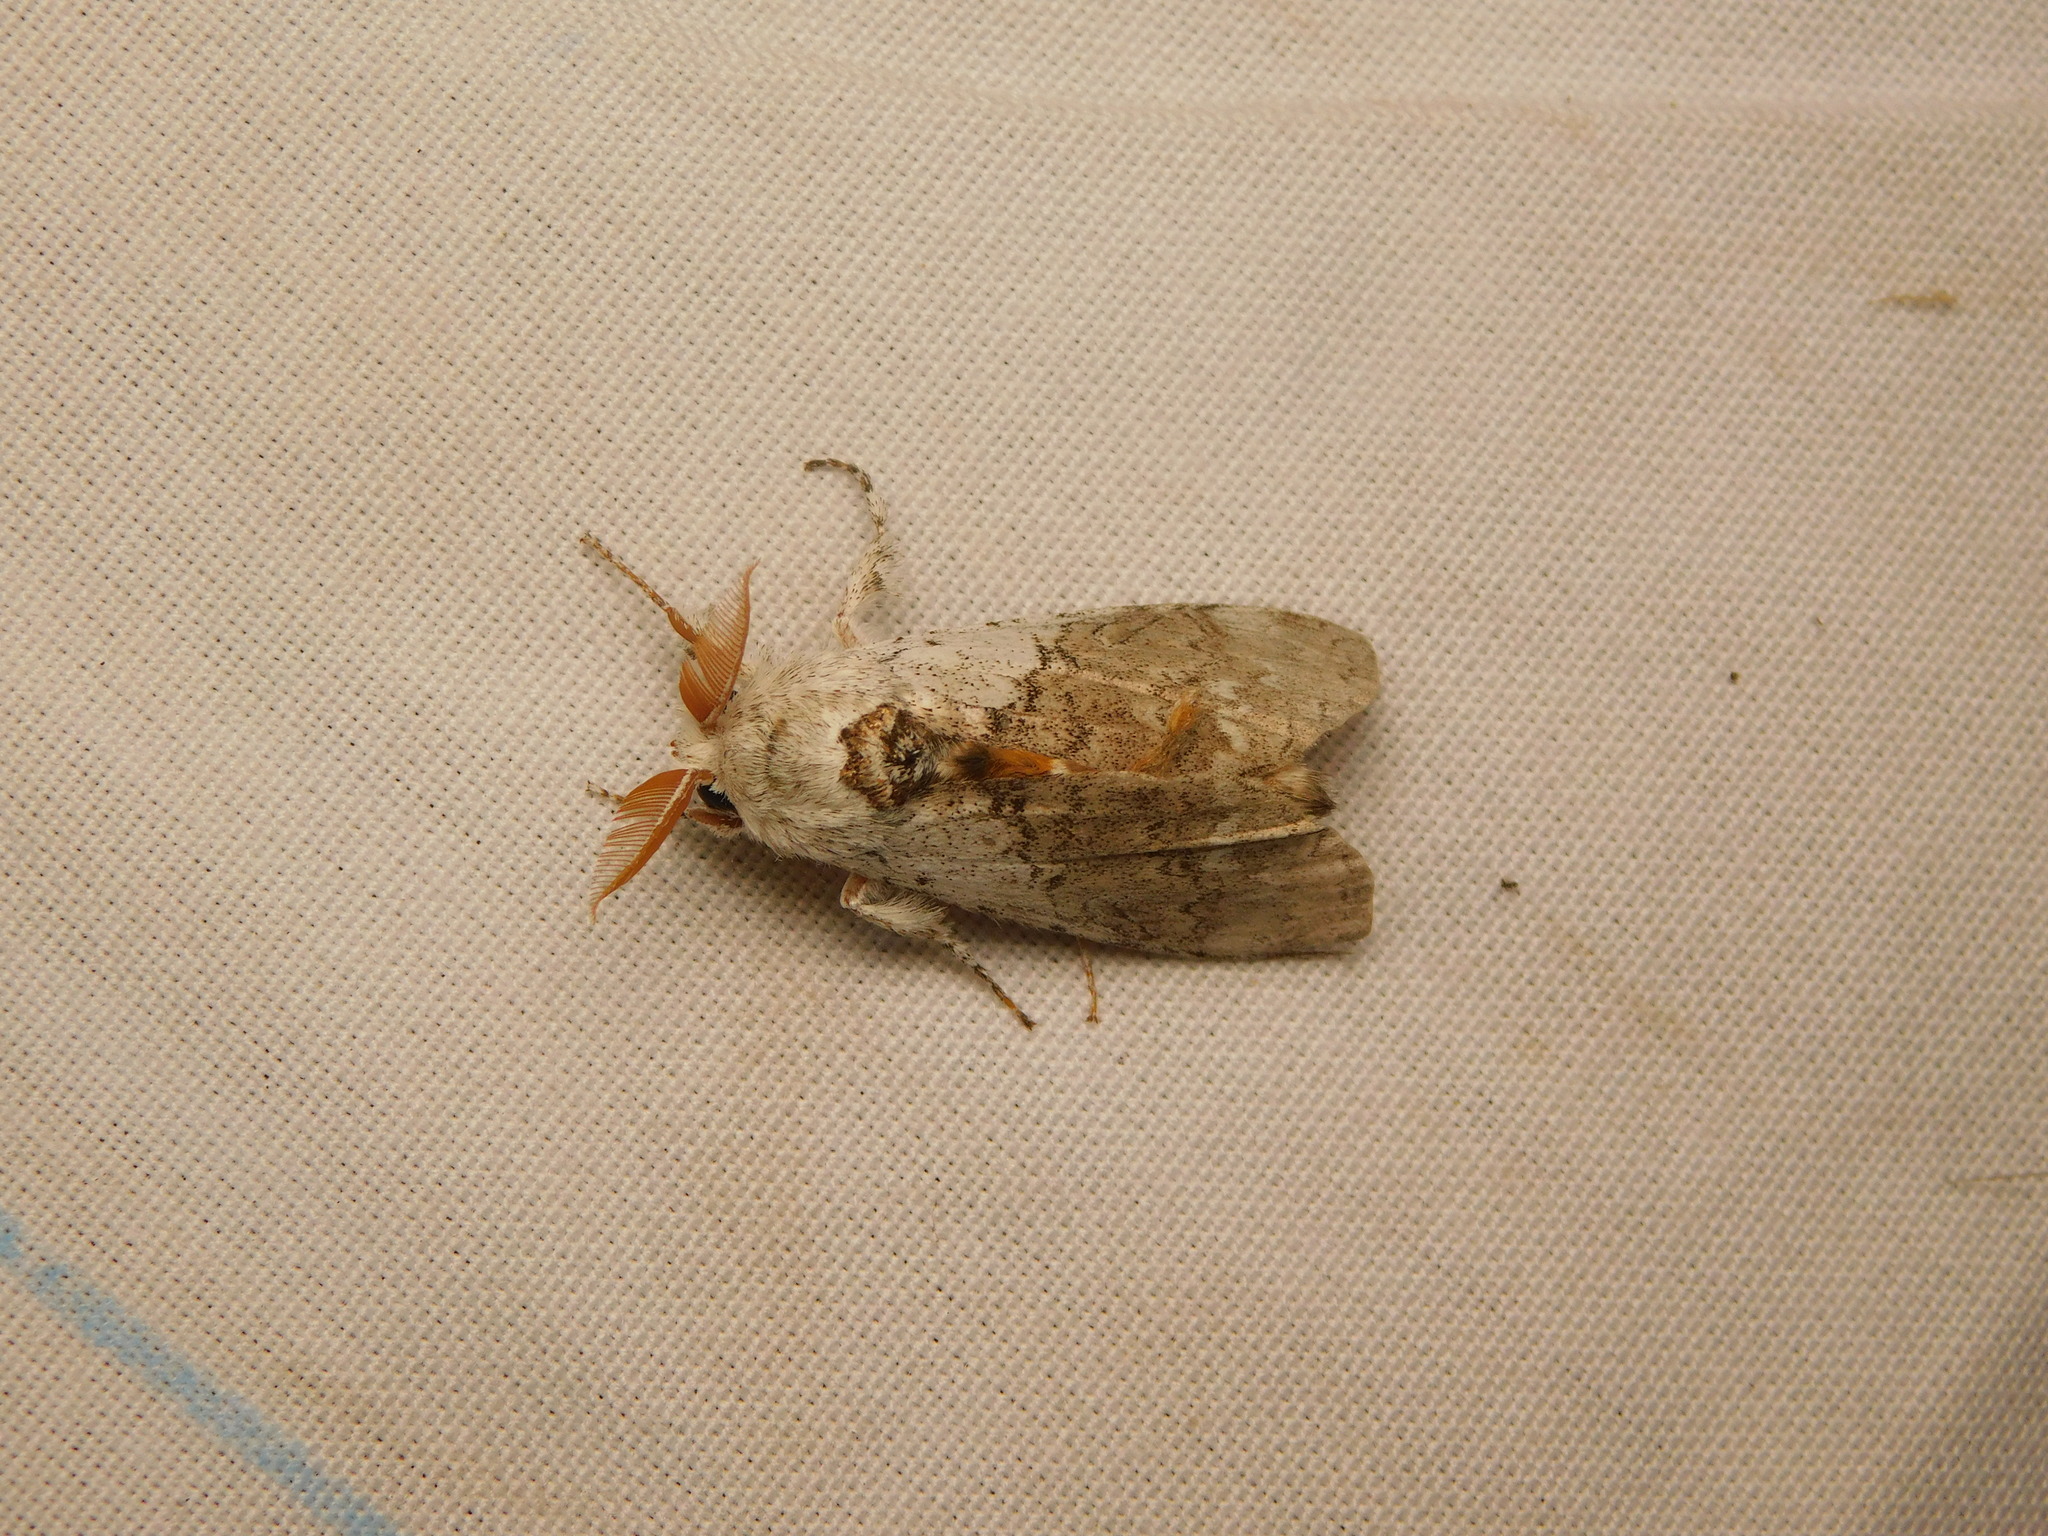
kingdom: Animalia
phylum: Arthropoda
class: Insecta
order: Lepidoptera
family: Erebidae
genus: Calliteara
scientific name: Calliteara horsfieldii
